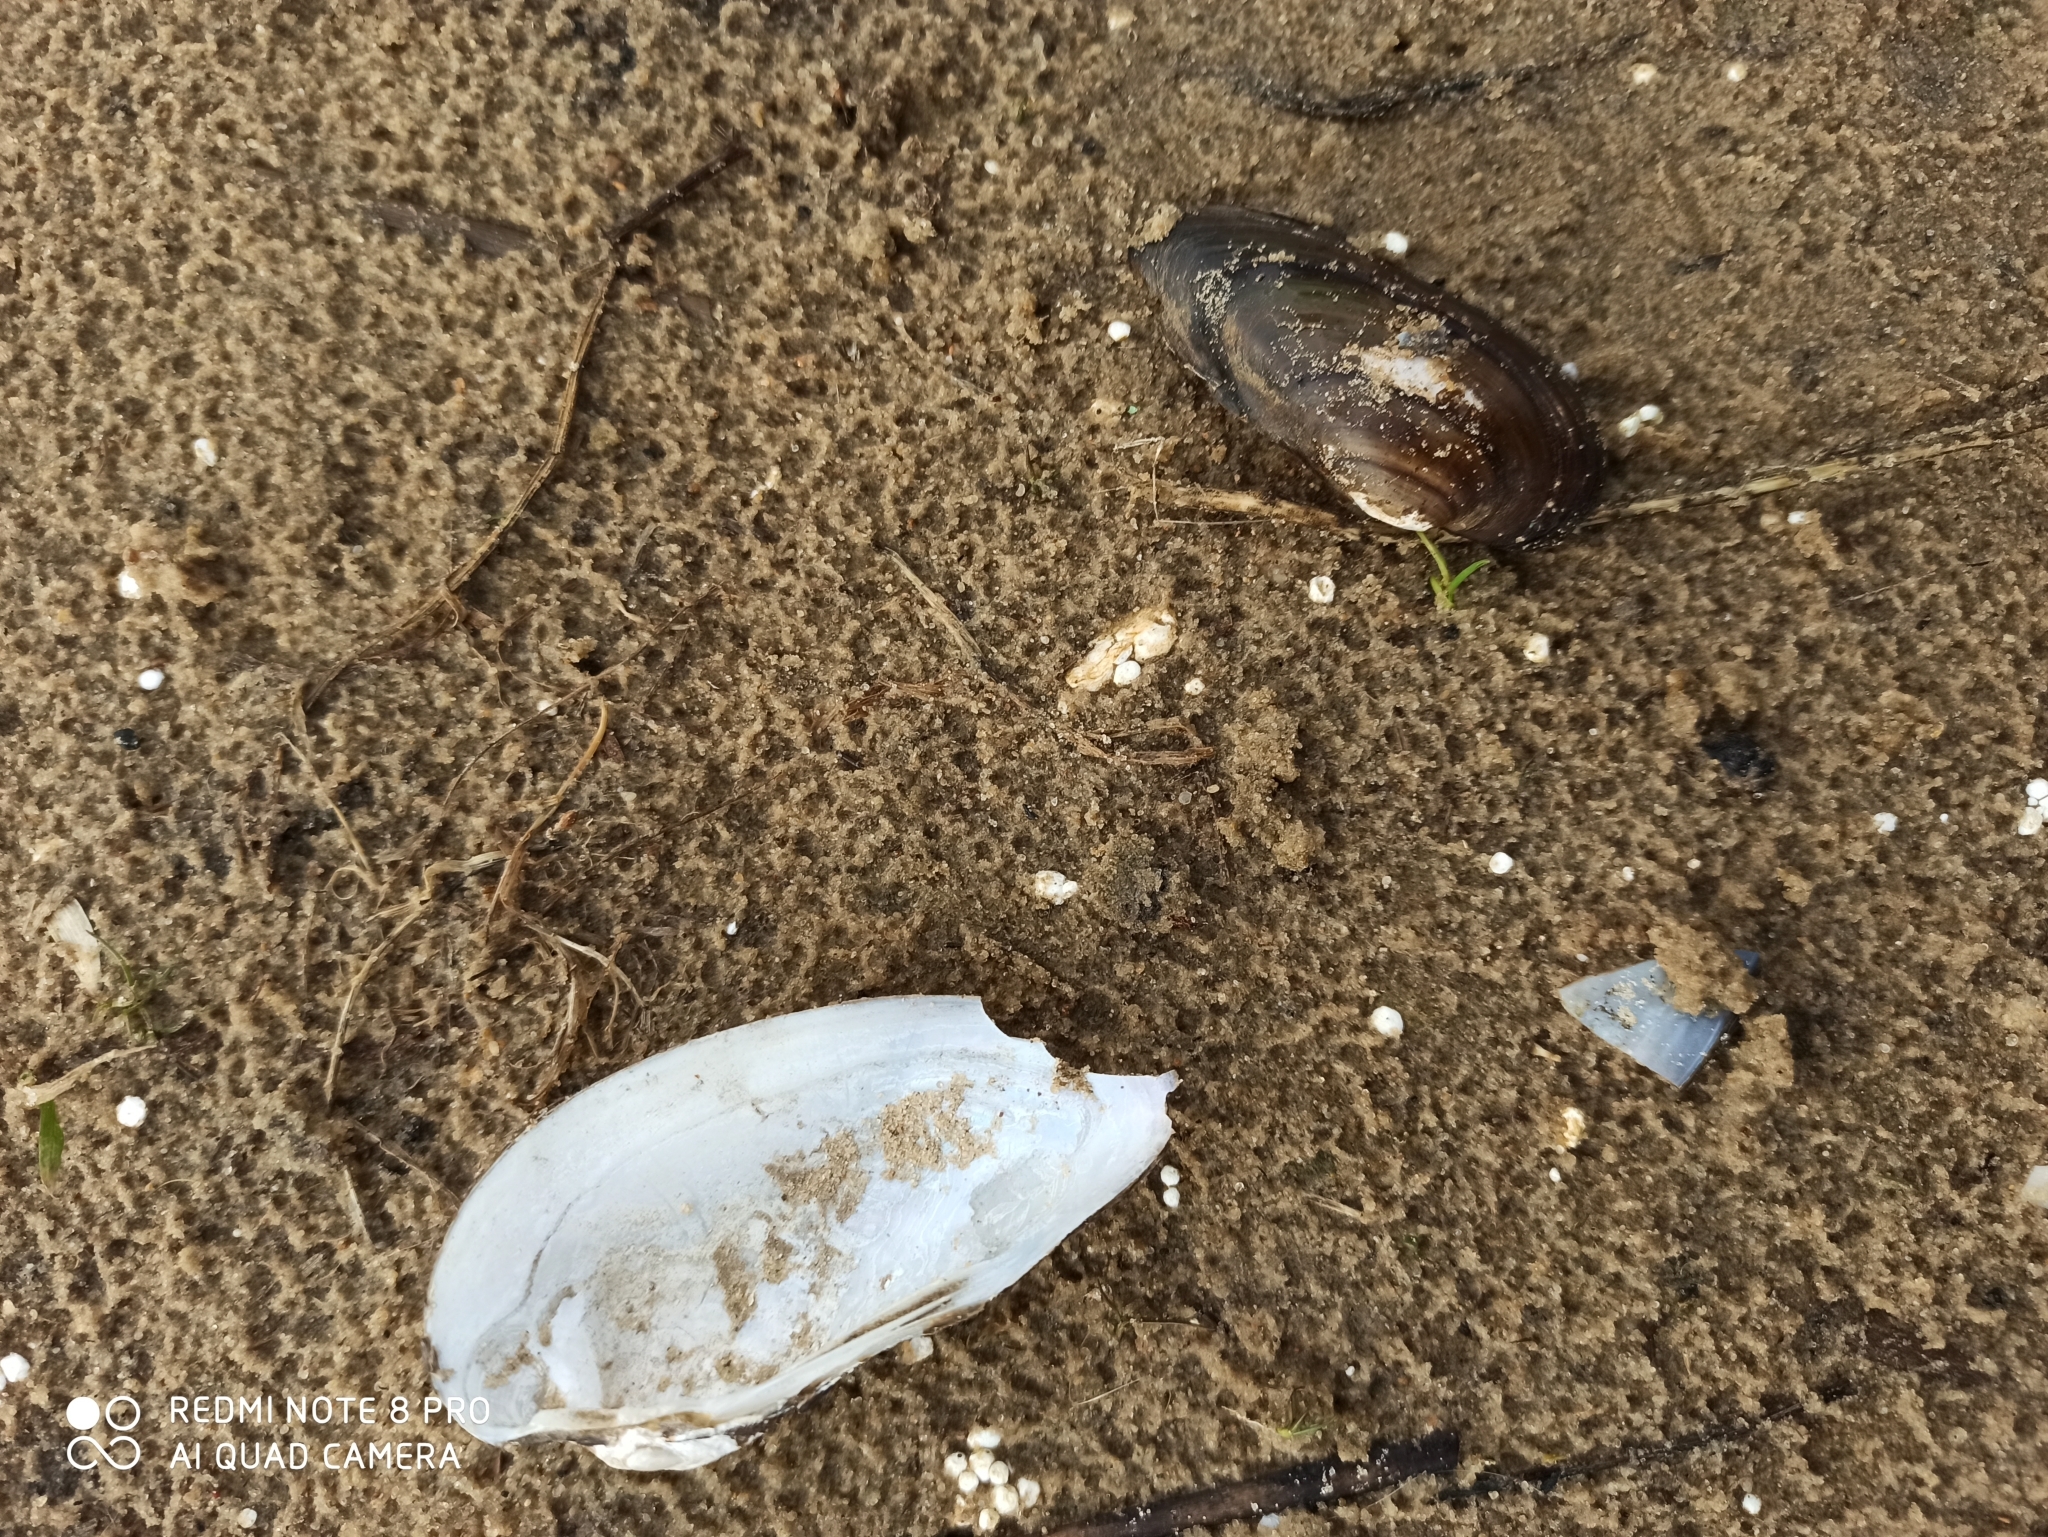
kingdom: Animalia
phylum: Mollusca
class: Bivalvia
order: Unionida
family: Unionidae
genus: Unio
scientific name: Unio tumidus
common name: Swollen river mussel
